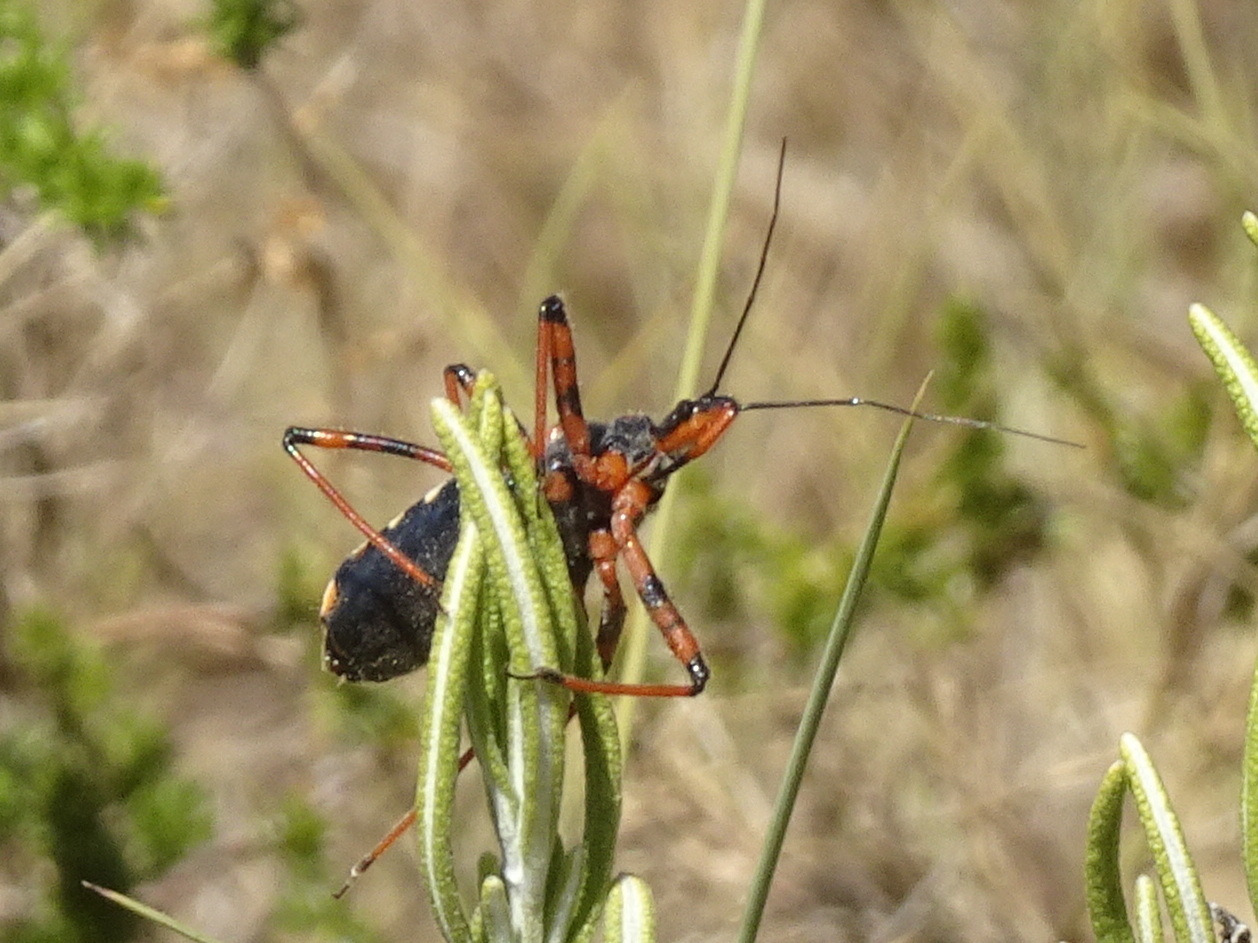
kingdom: Animalia
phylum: Arthropoda
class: Insecta
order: Hemiptera
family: Reduviidae
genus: Rhynocoris
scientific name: Rhynocoris
